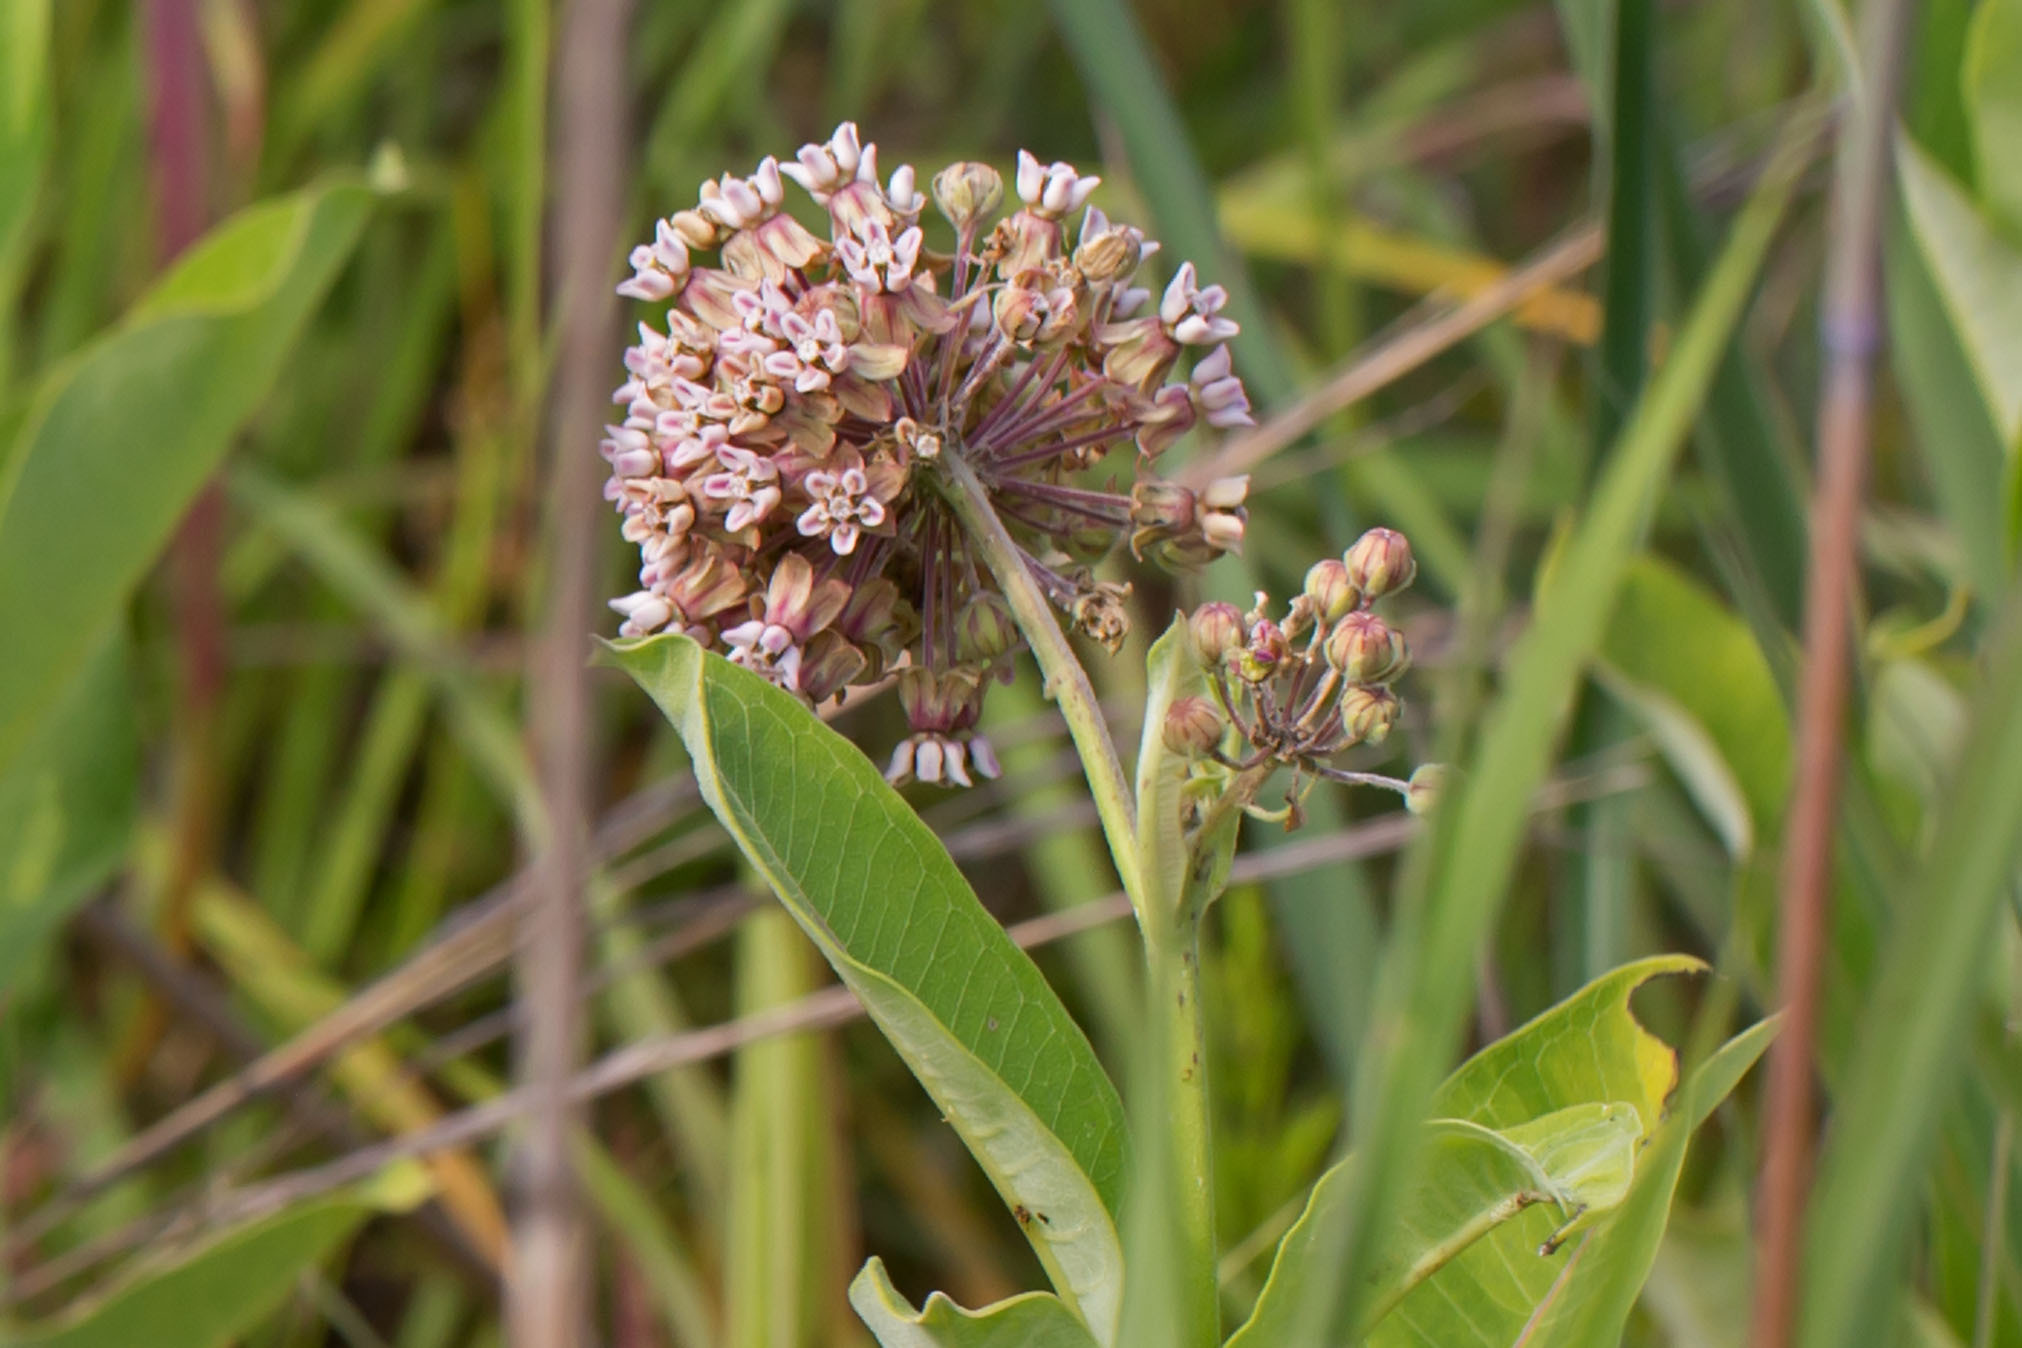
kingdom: Plantae
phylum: Tracheophyta
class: Magnoliopsida
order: Gentianales
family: Apocynaceae
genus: Asclepias
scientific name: Asclepias syriaca
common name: Common milkweed
